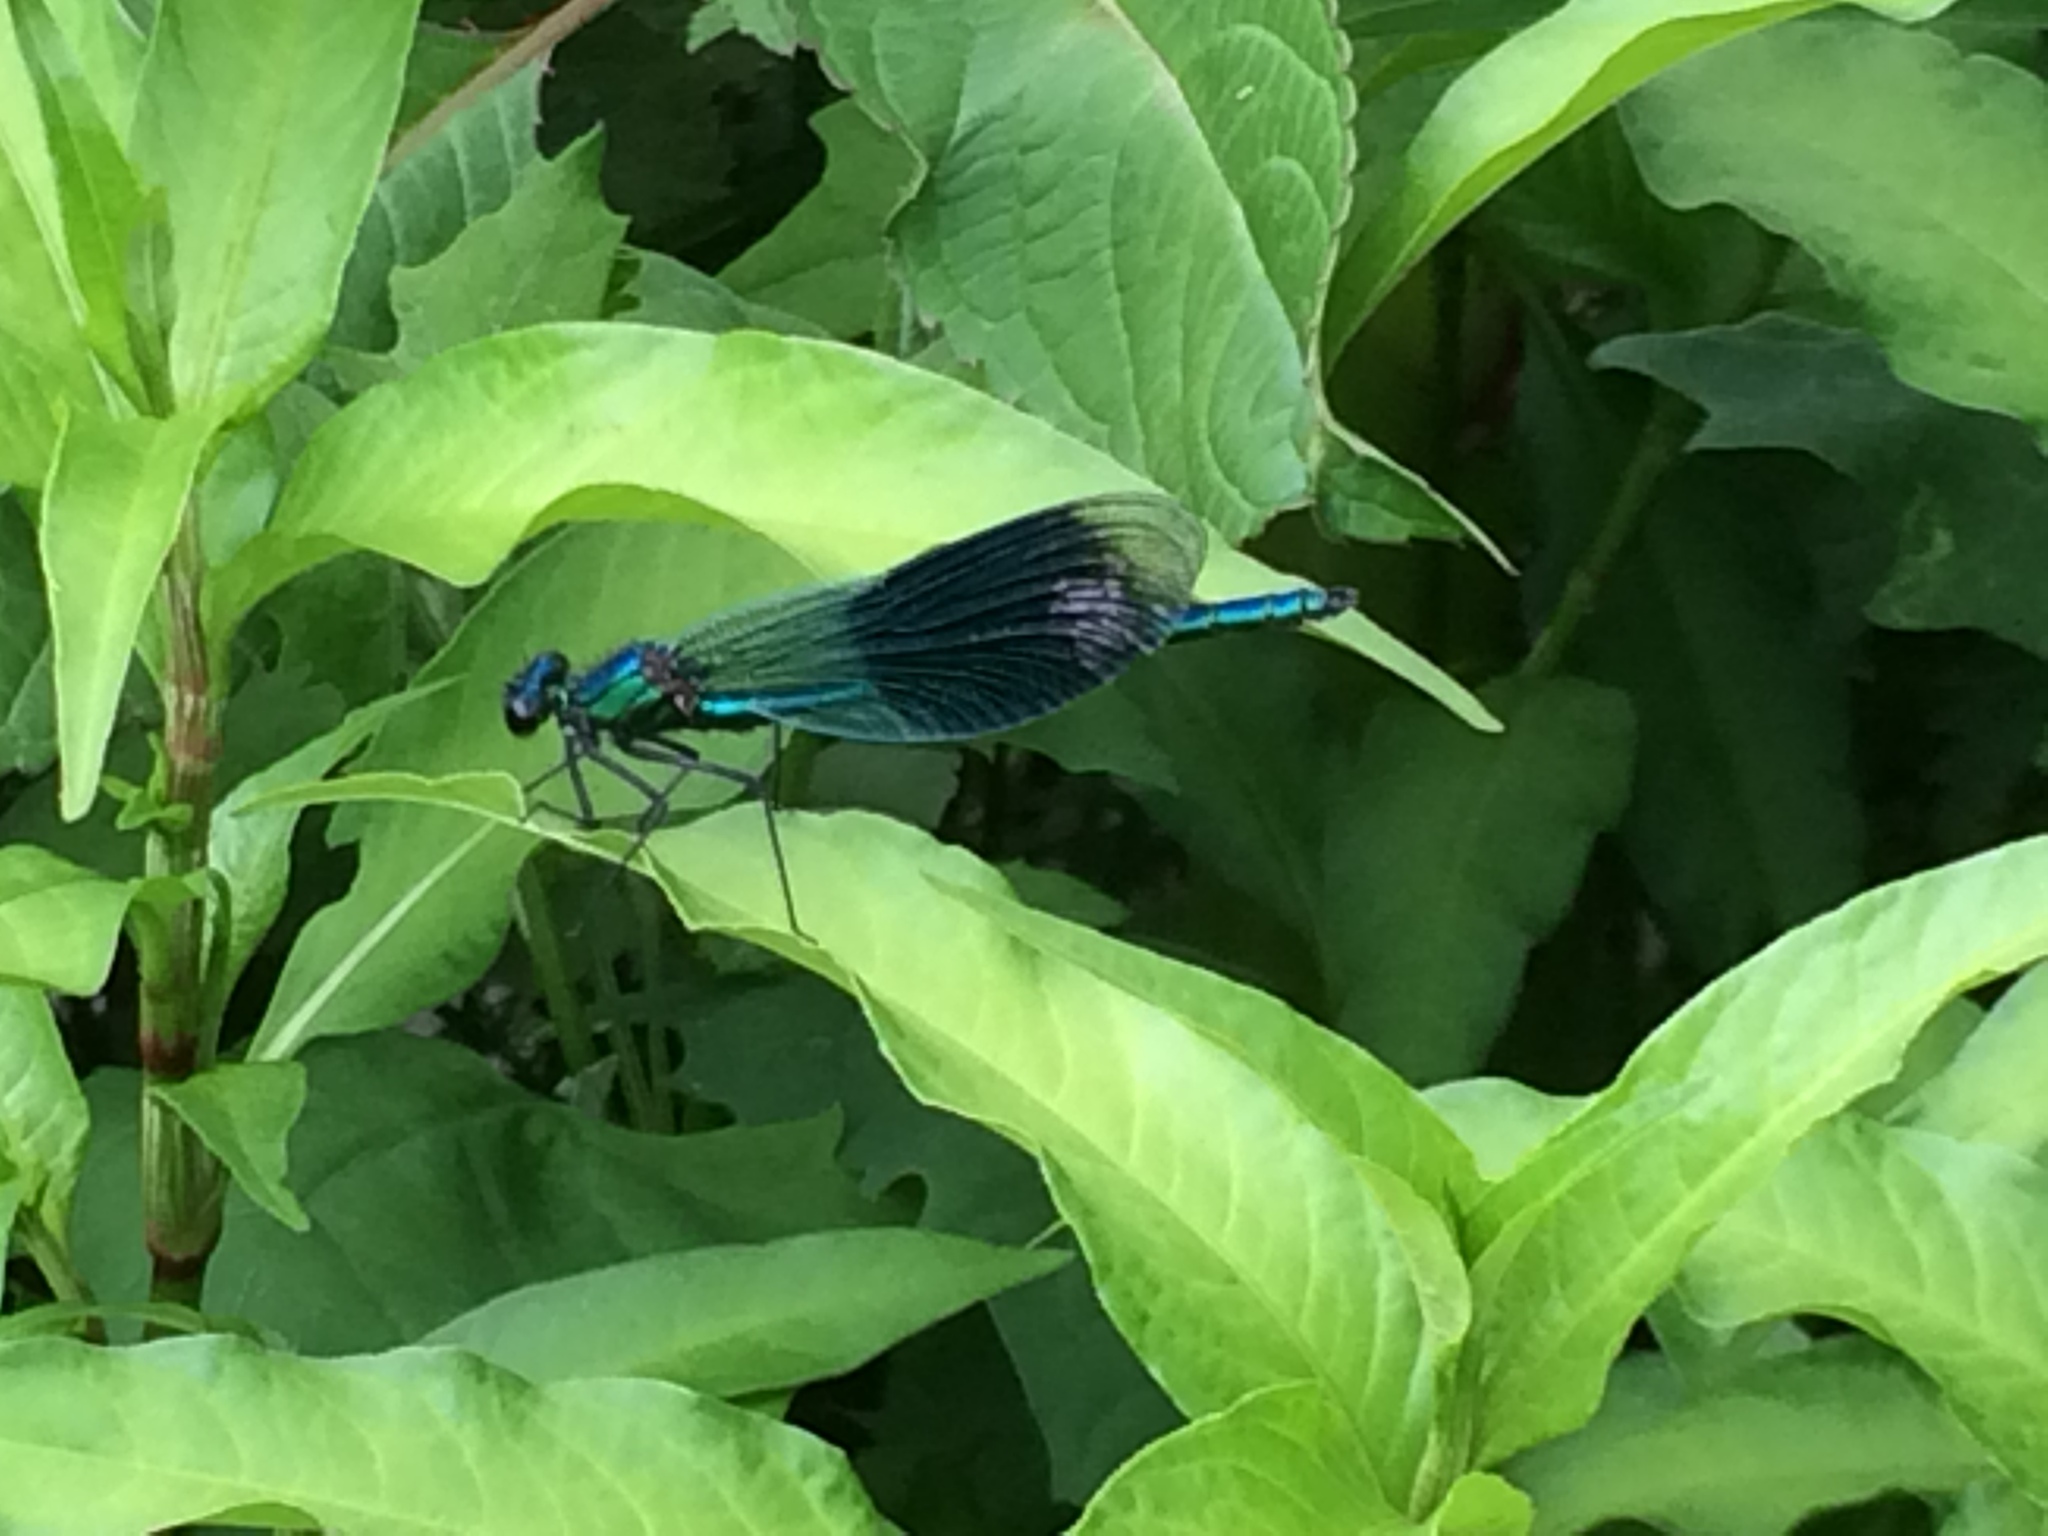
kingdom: Animalia
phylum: Arthropoda
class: Insecta
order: Odonata
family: Calopterygidae
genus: Calopteryx
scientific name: Calopteryx splendens
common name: Banded demoiselle
